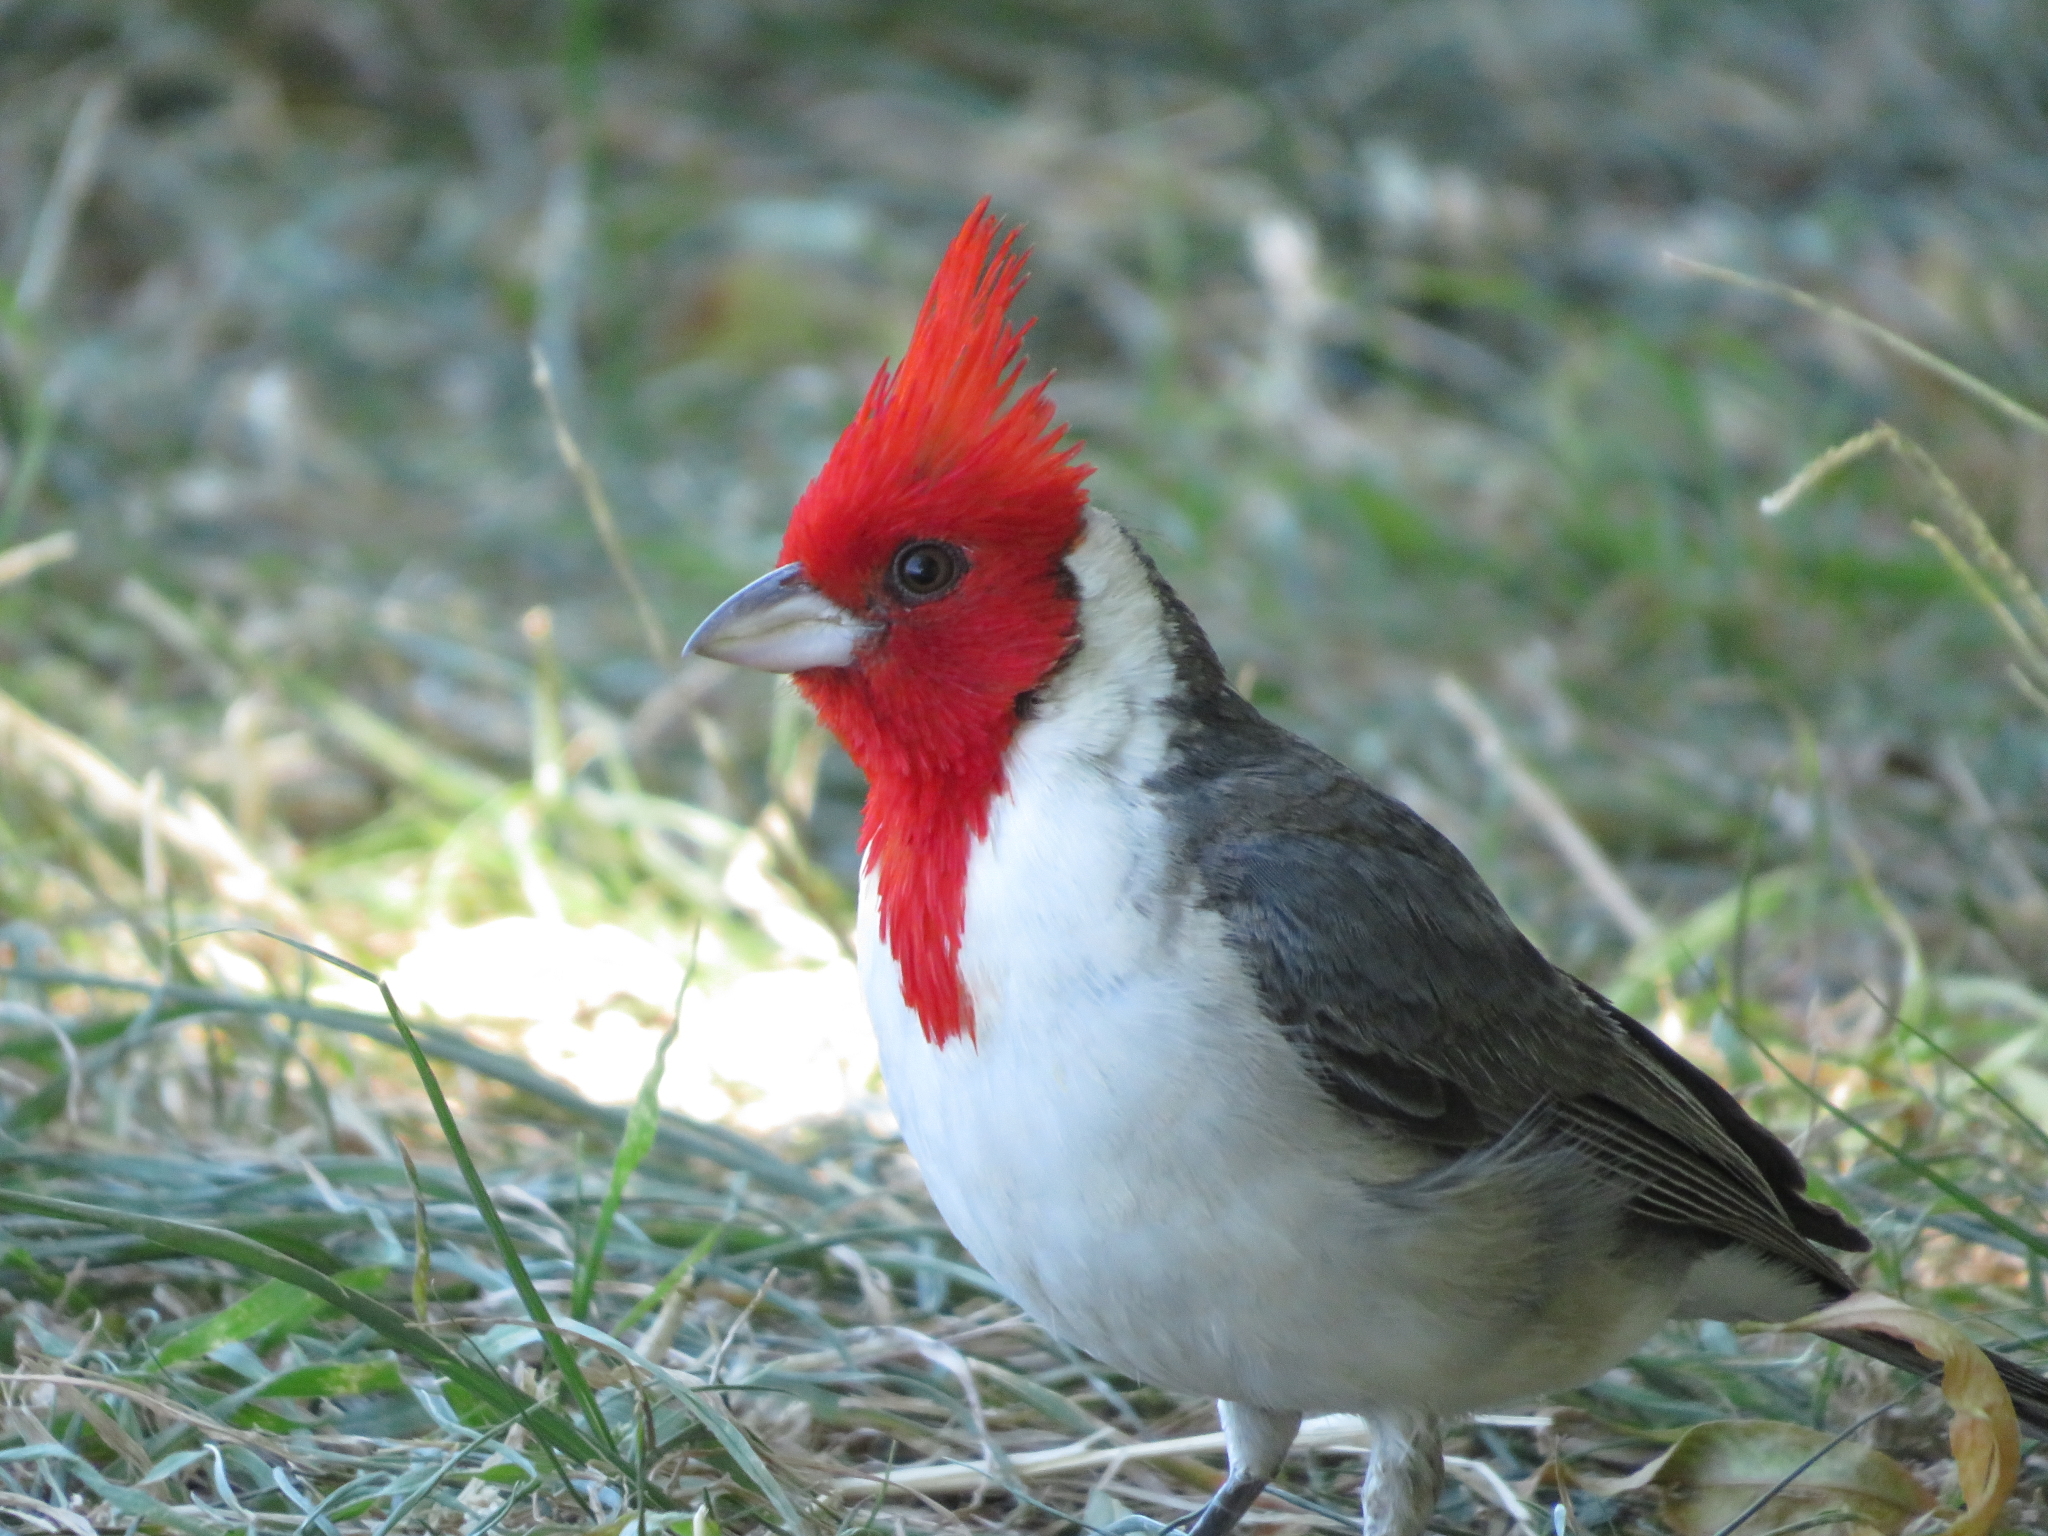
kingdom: Animalia
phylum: Chordata
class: Aves
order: Passeriformes
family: Thraupidae
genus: Paroaria
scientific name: Paroaria coronata
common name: Red-crested cardinal
